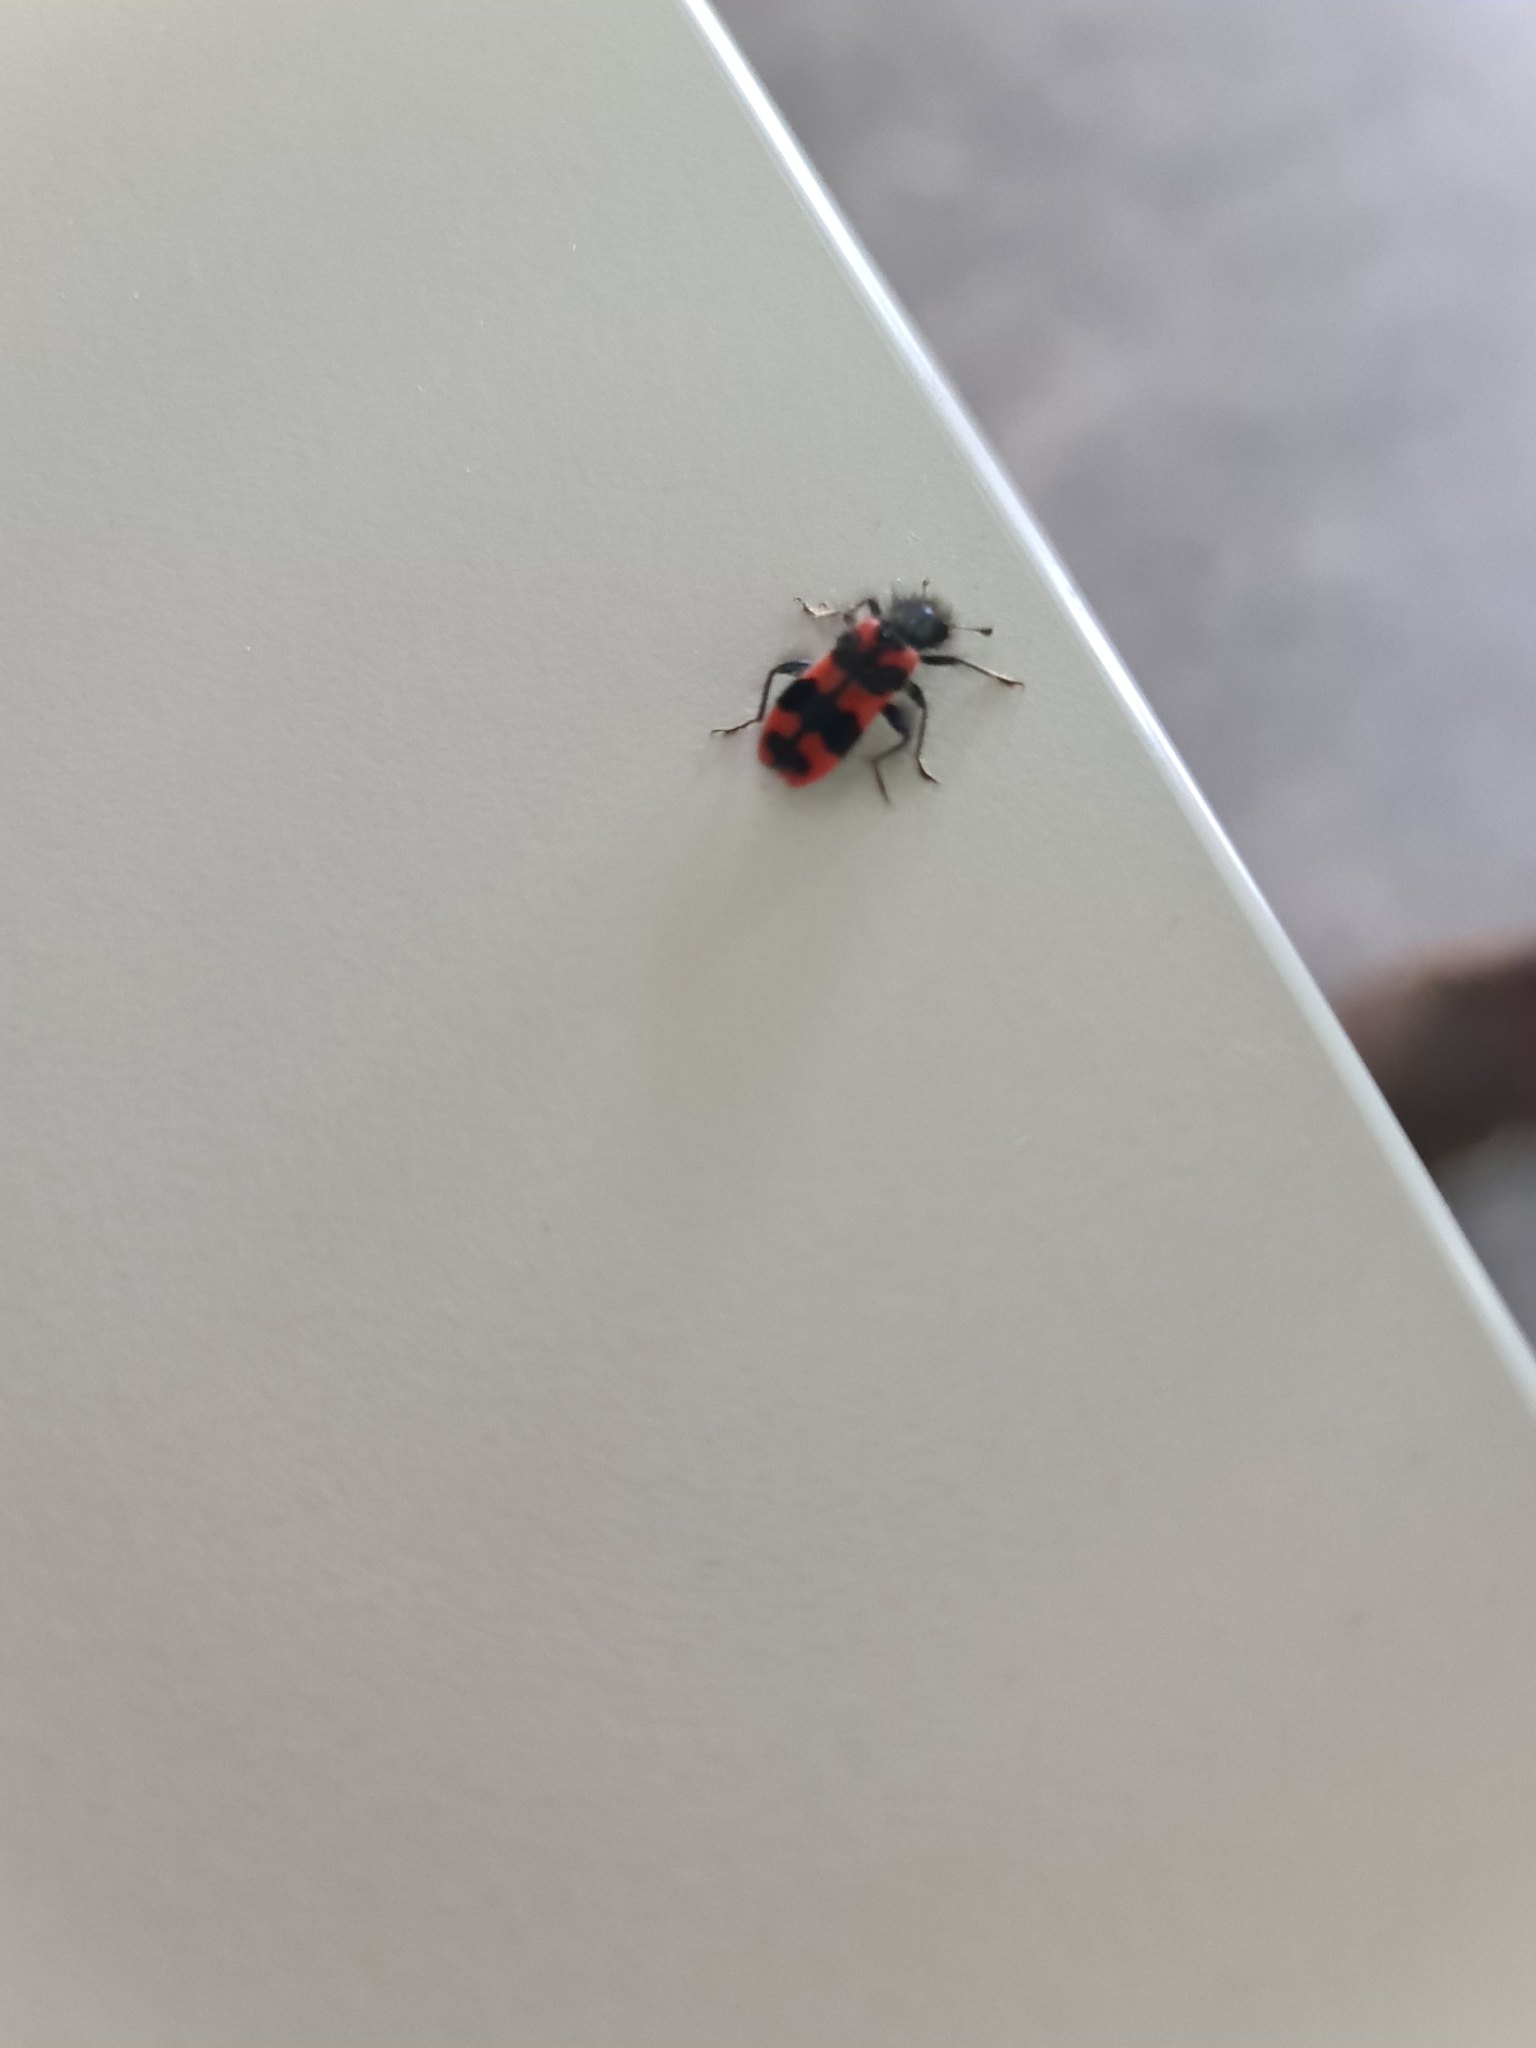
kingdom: Animalia
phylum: Arthropoda
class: Insecta
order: Coleoptera
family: Cleridae
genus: Trichodes
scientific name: Trichodes alvearius
